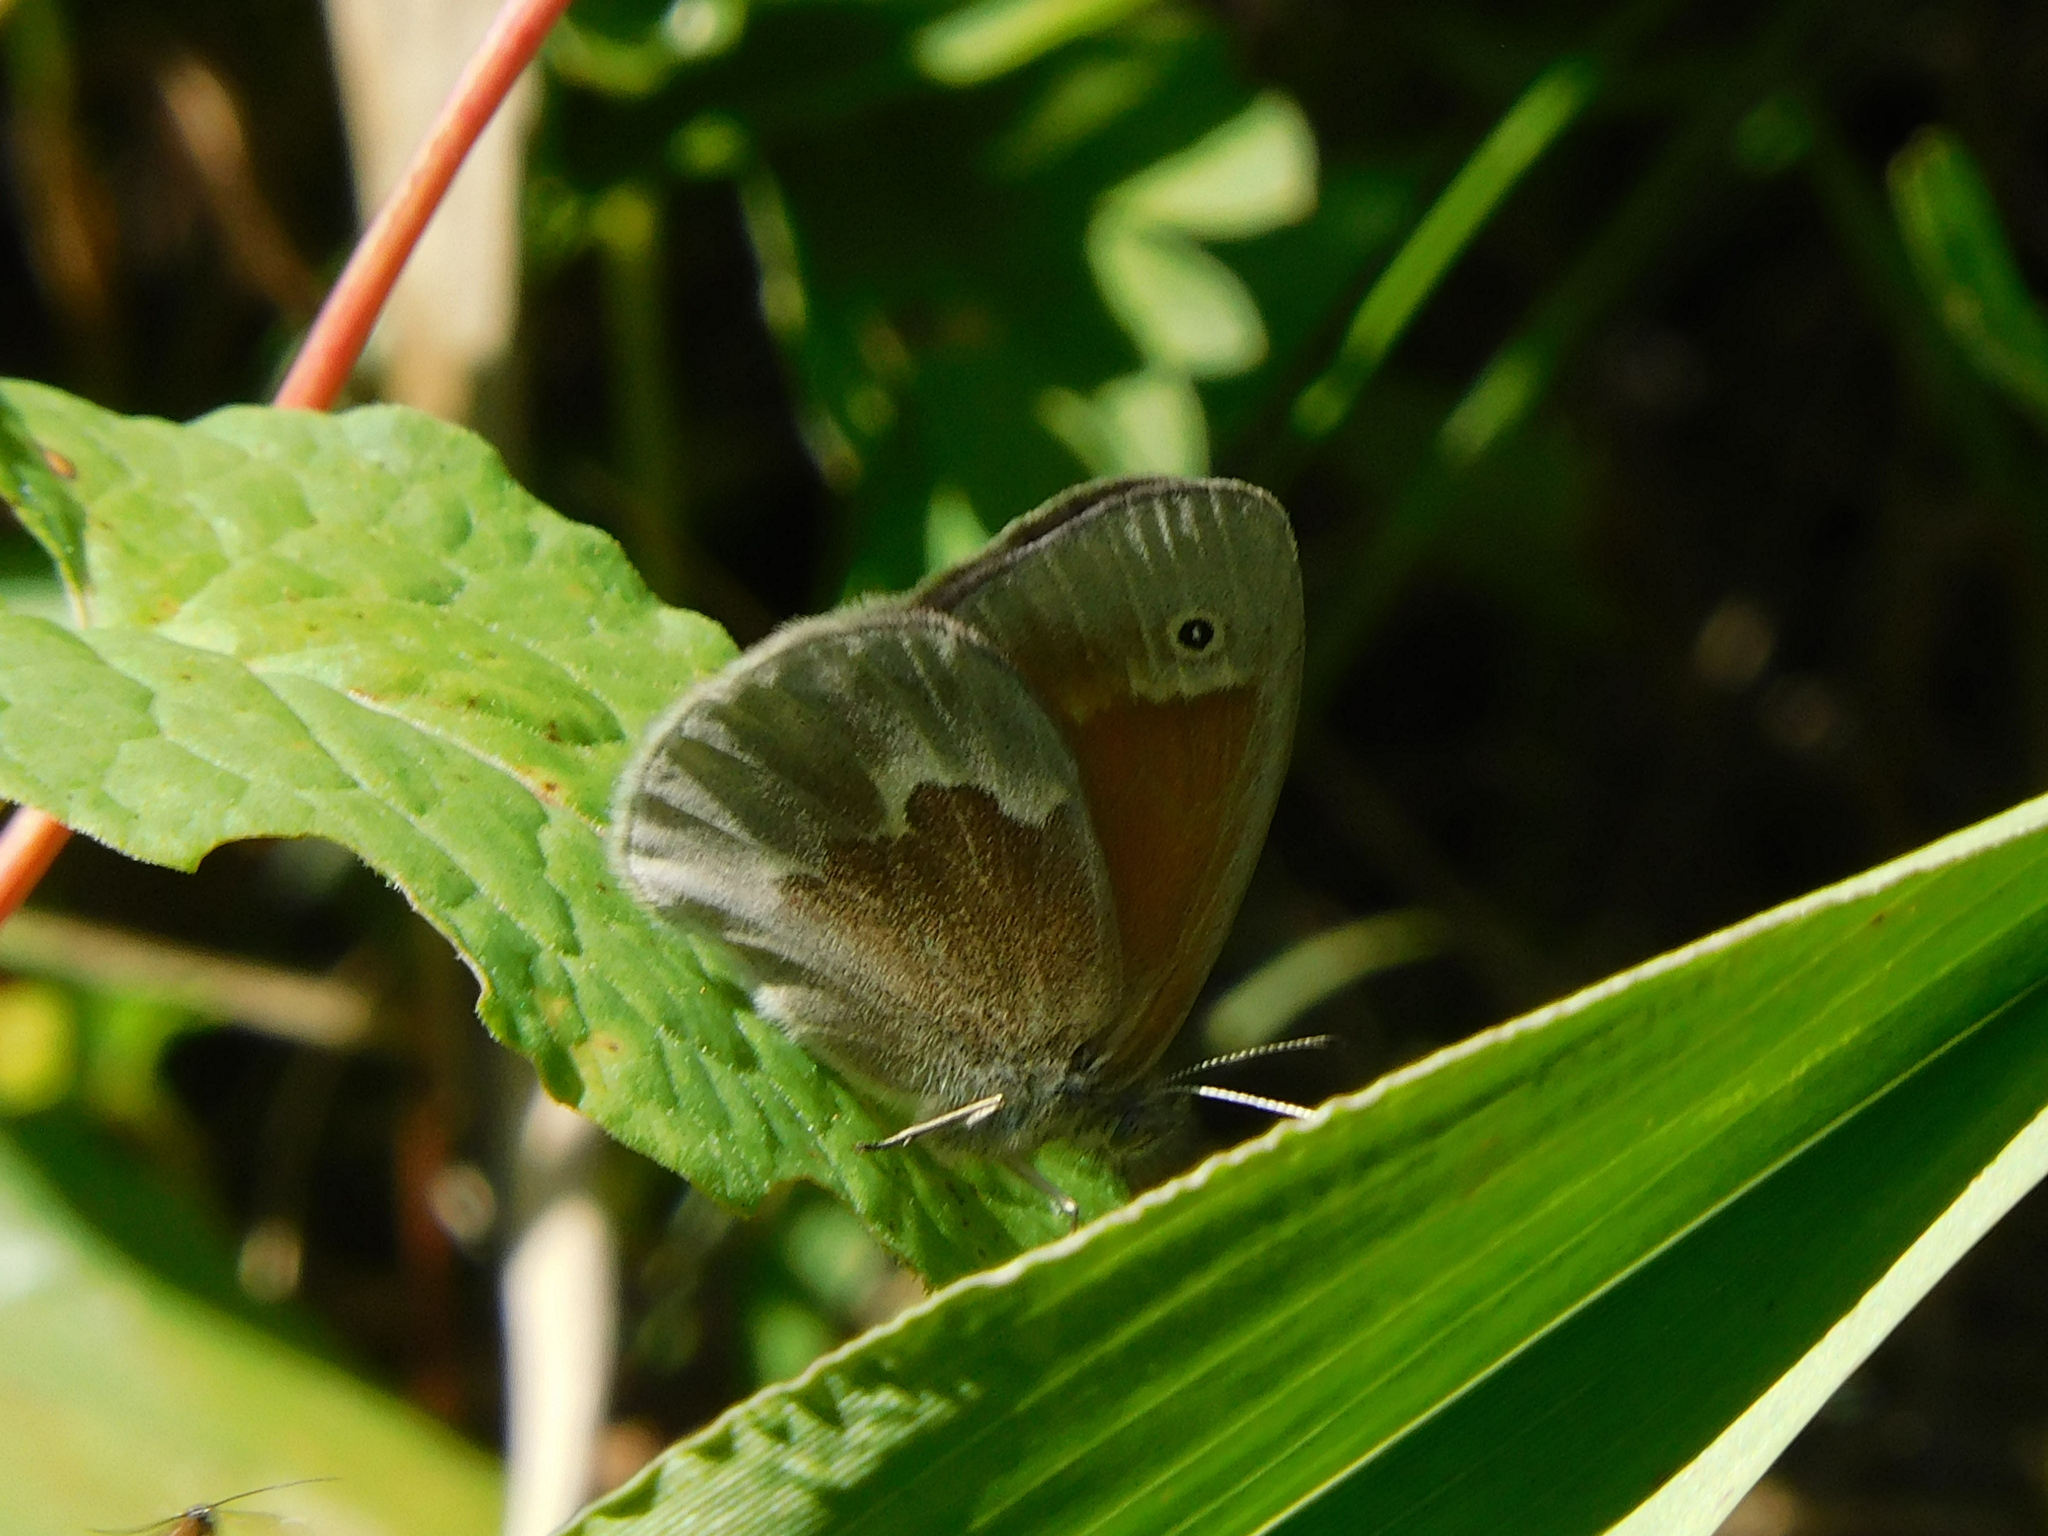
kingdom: Animalia
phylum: Arthropoda
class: Insecta
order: Lepidoptera
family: Nymphalidae
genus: Coenonympha
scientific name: Coenonympha california
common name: Common ringlet
